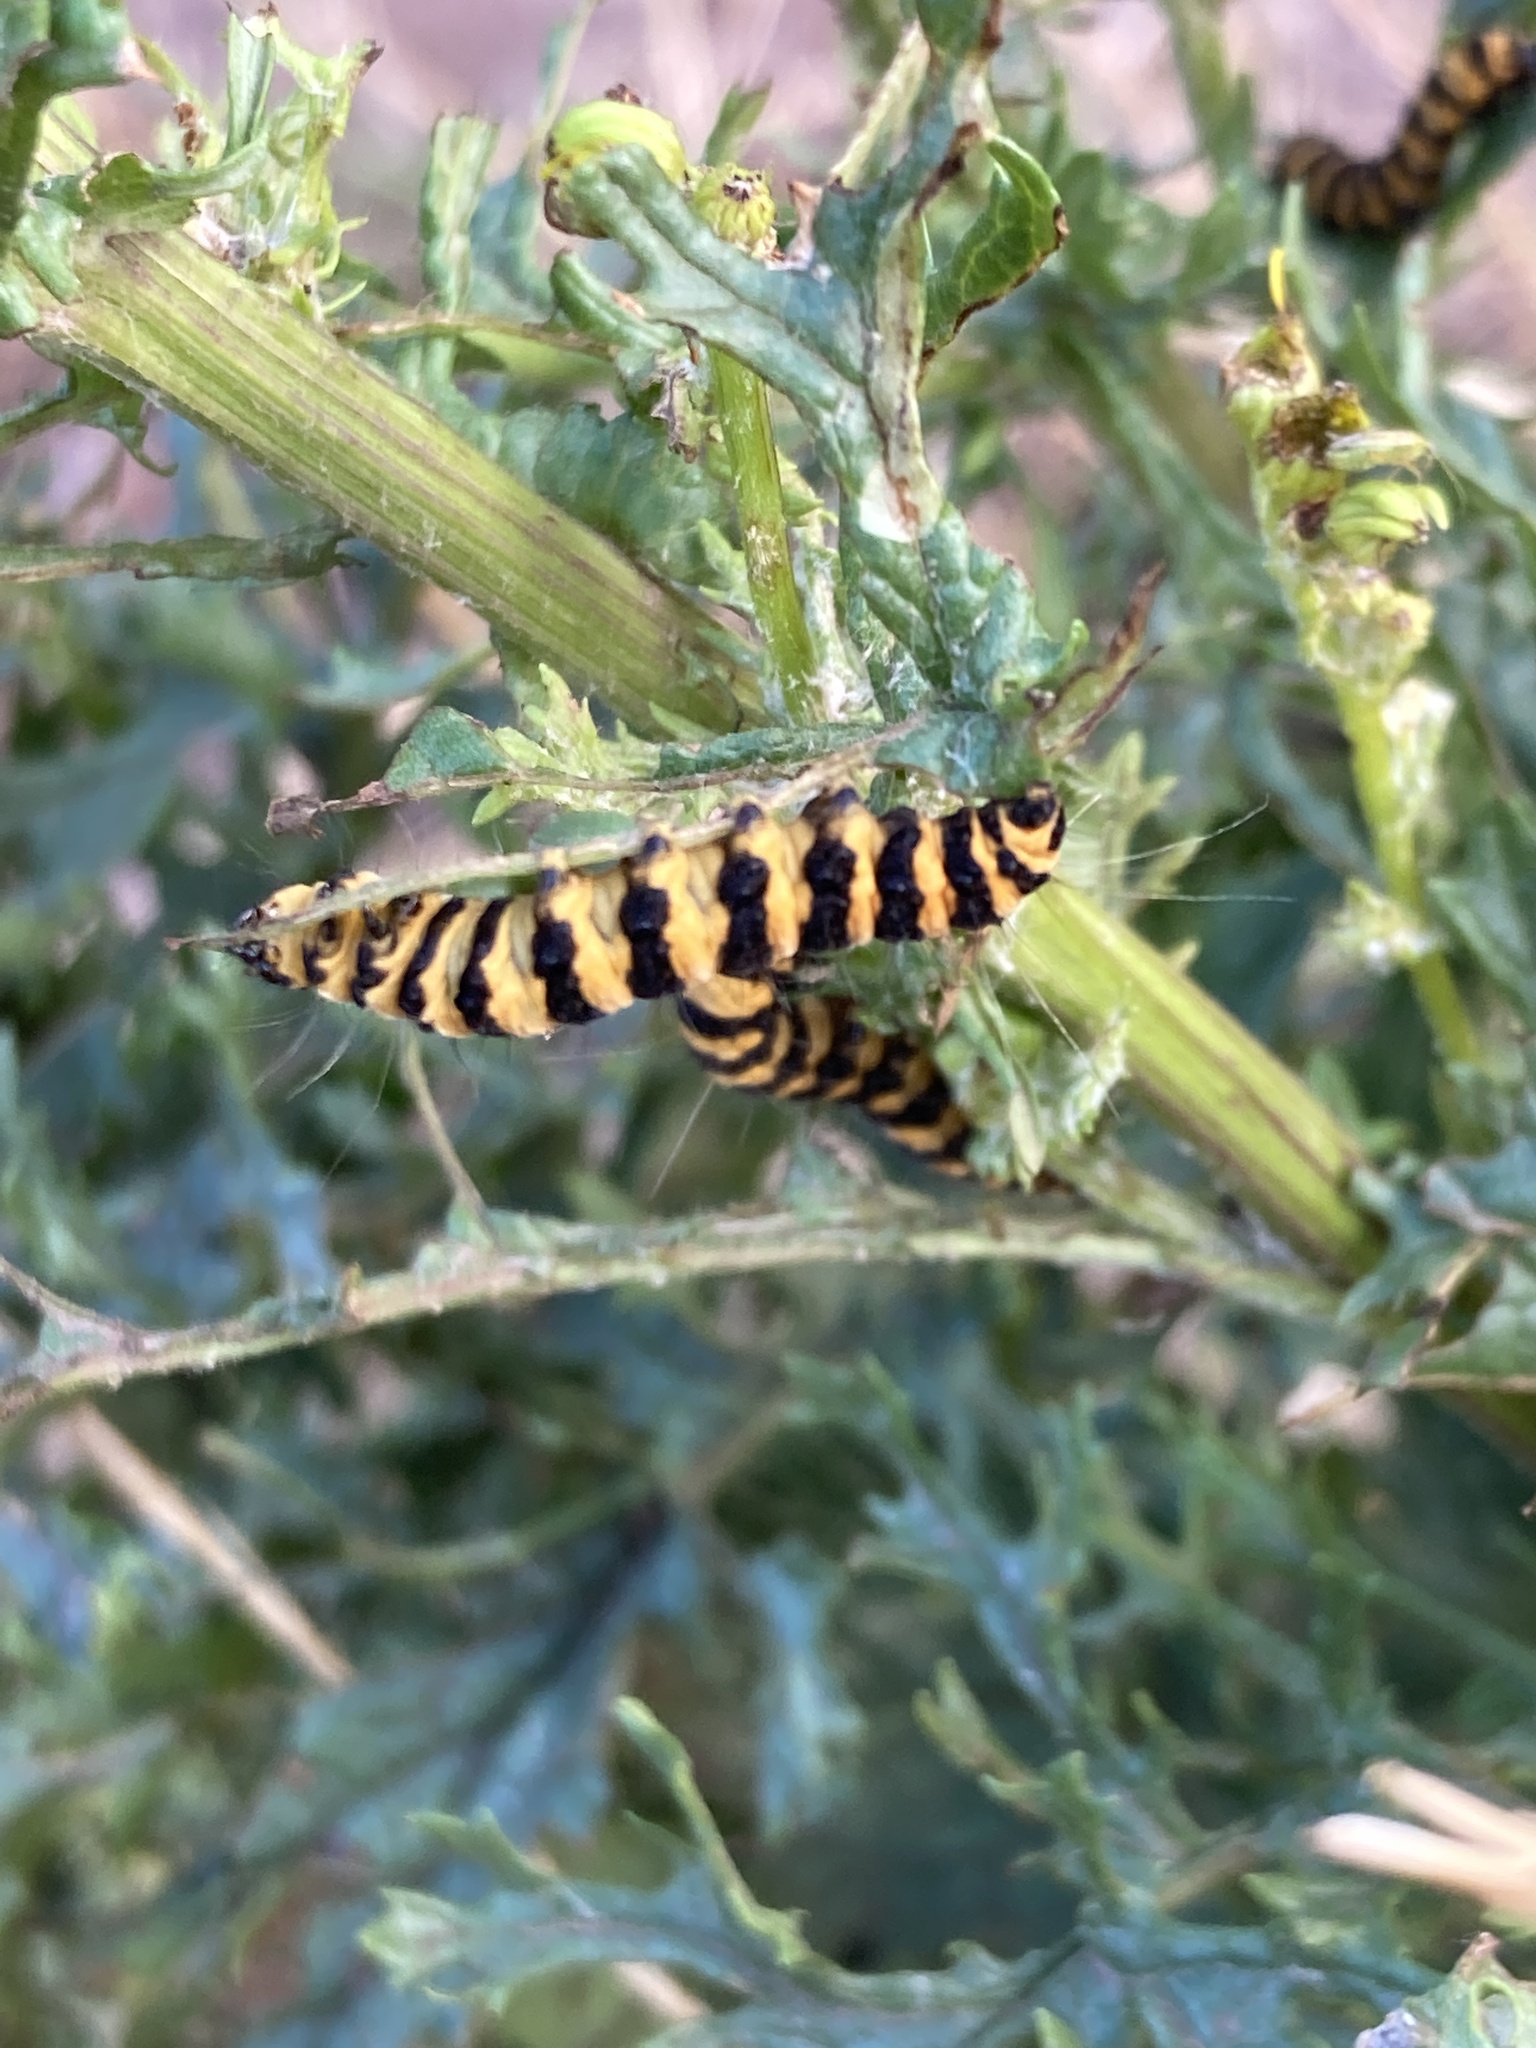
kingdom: Animalia
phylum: Arthropoda
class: Insecta
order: Lepidoptera
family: Erebidae
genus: Tyria
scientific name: Tyria jacobaeae
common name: Cinnabar
